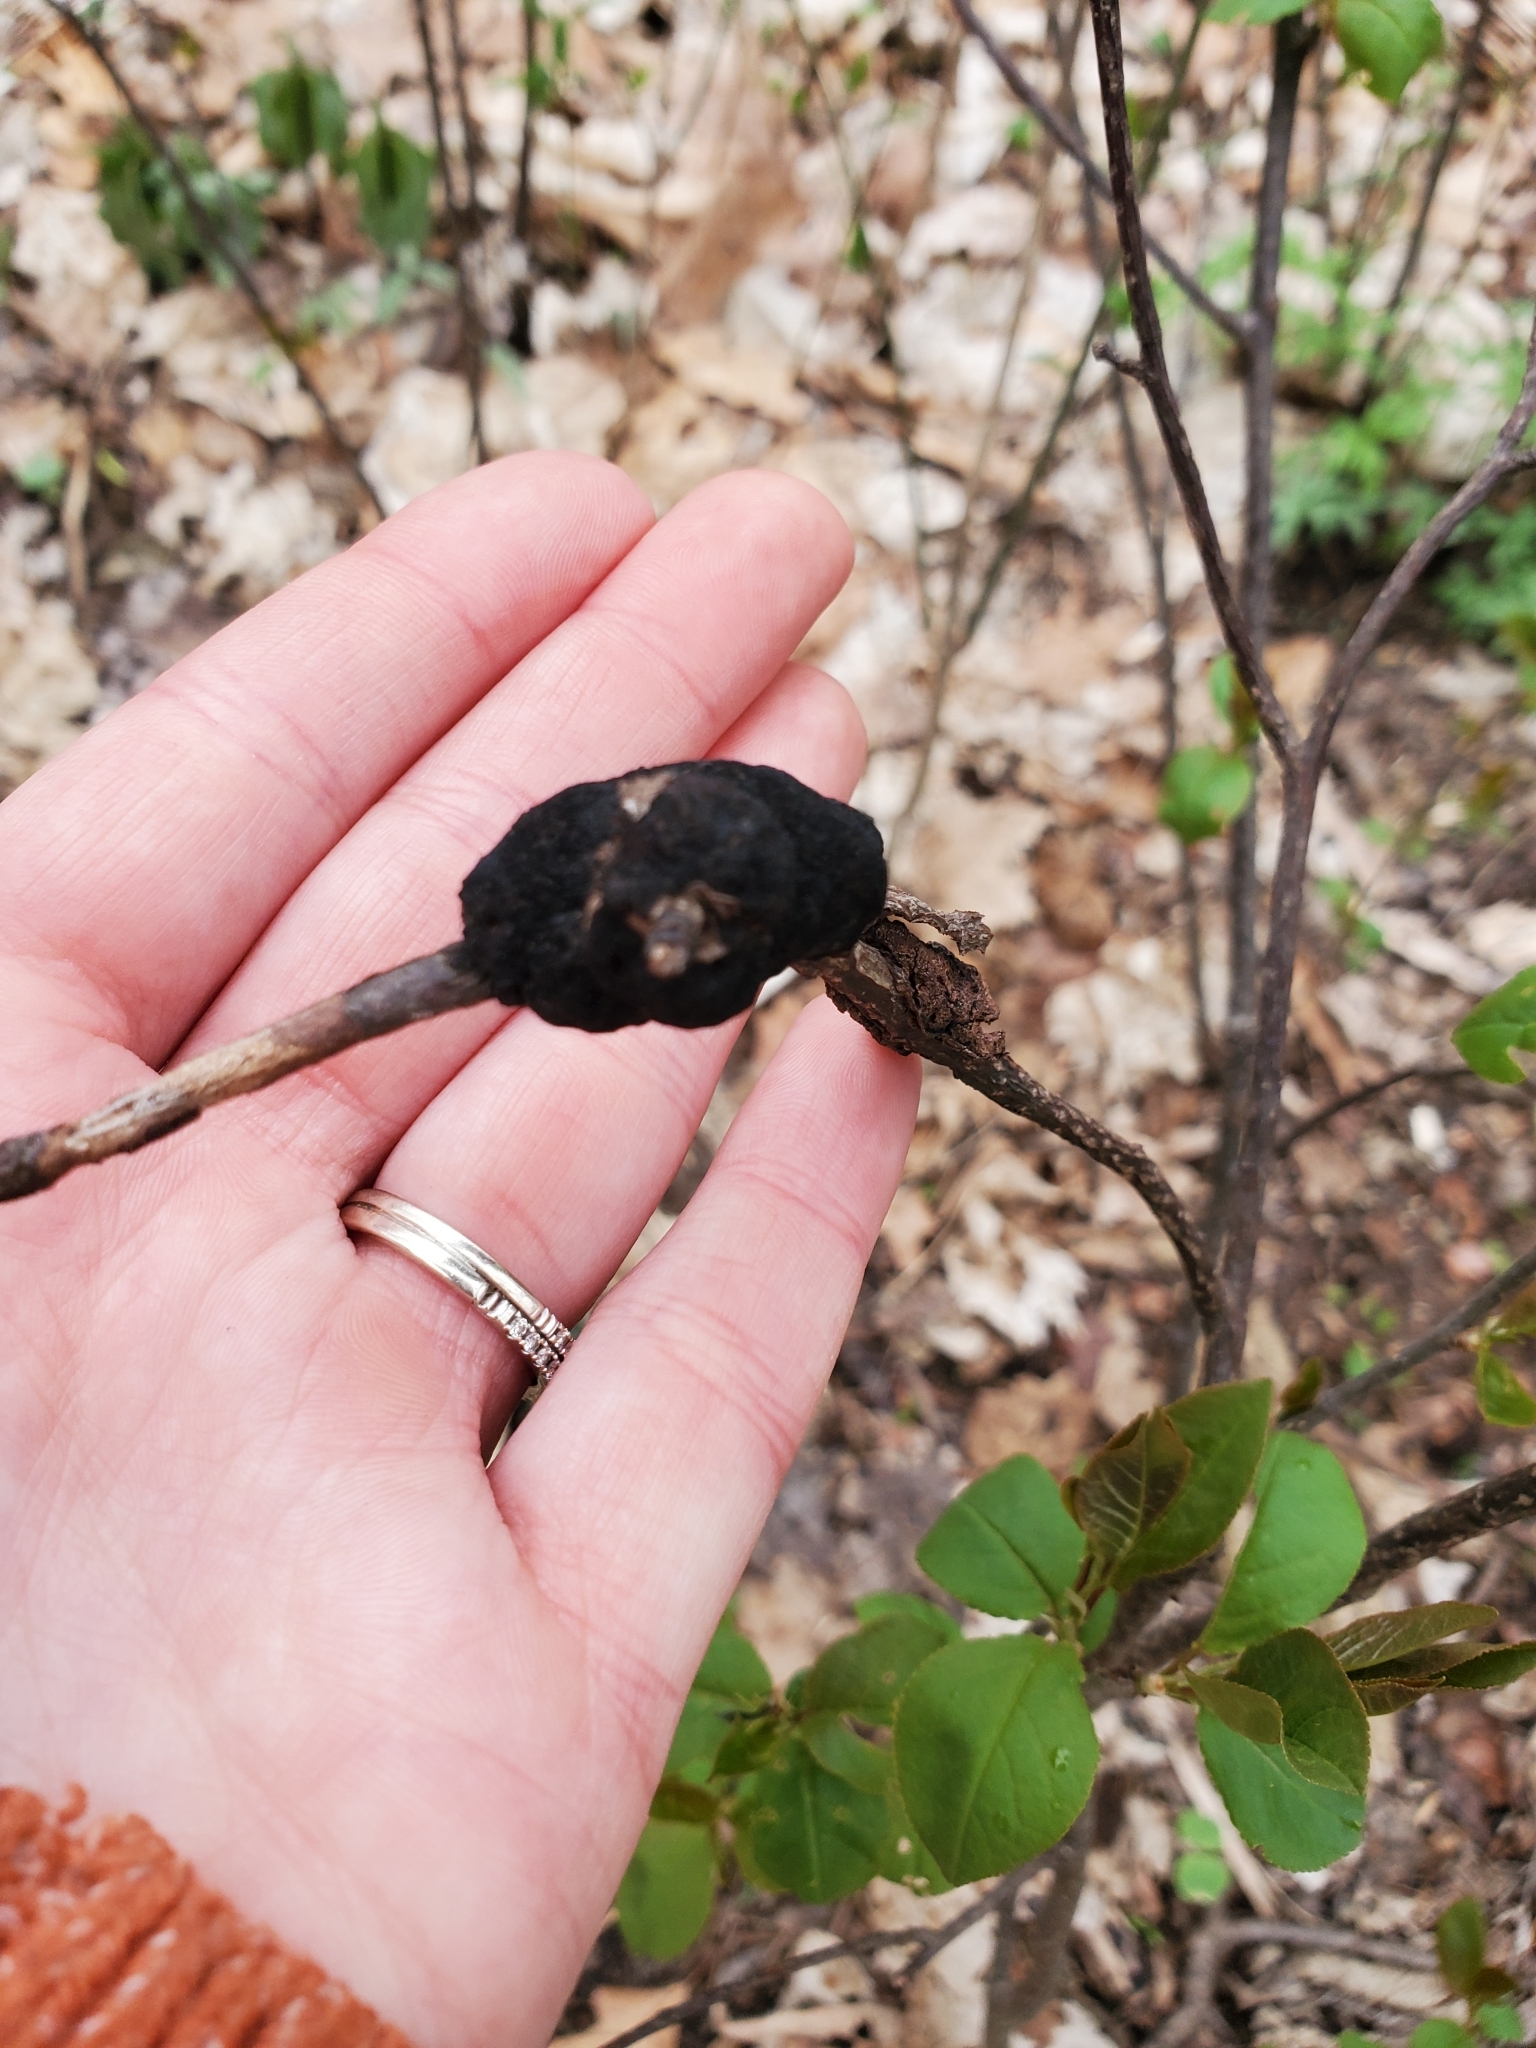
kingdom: Fungi
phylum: Ascomycota
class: Dothideomycetes
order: Venturiales
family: Venturiaceae
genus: Apiosporina
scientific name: Apiosporina morbosa
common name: Black knot
